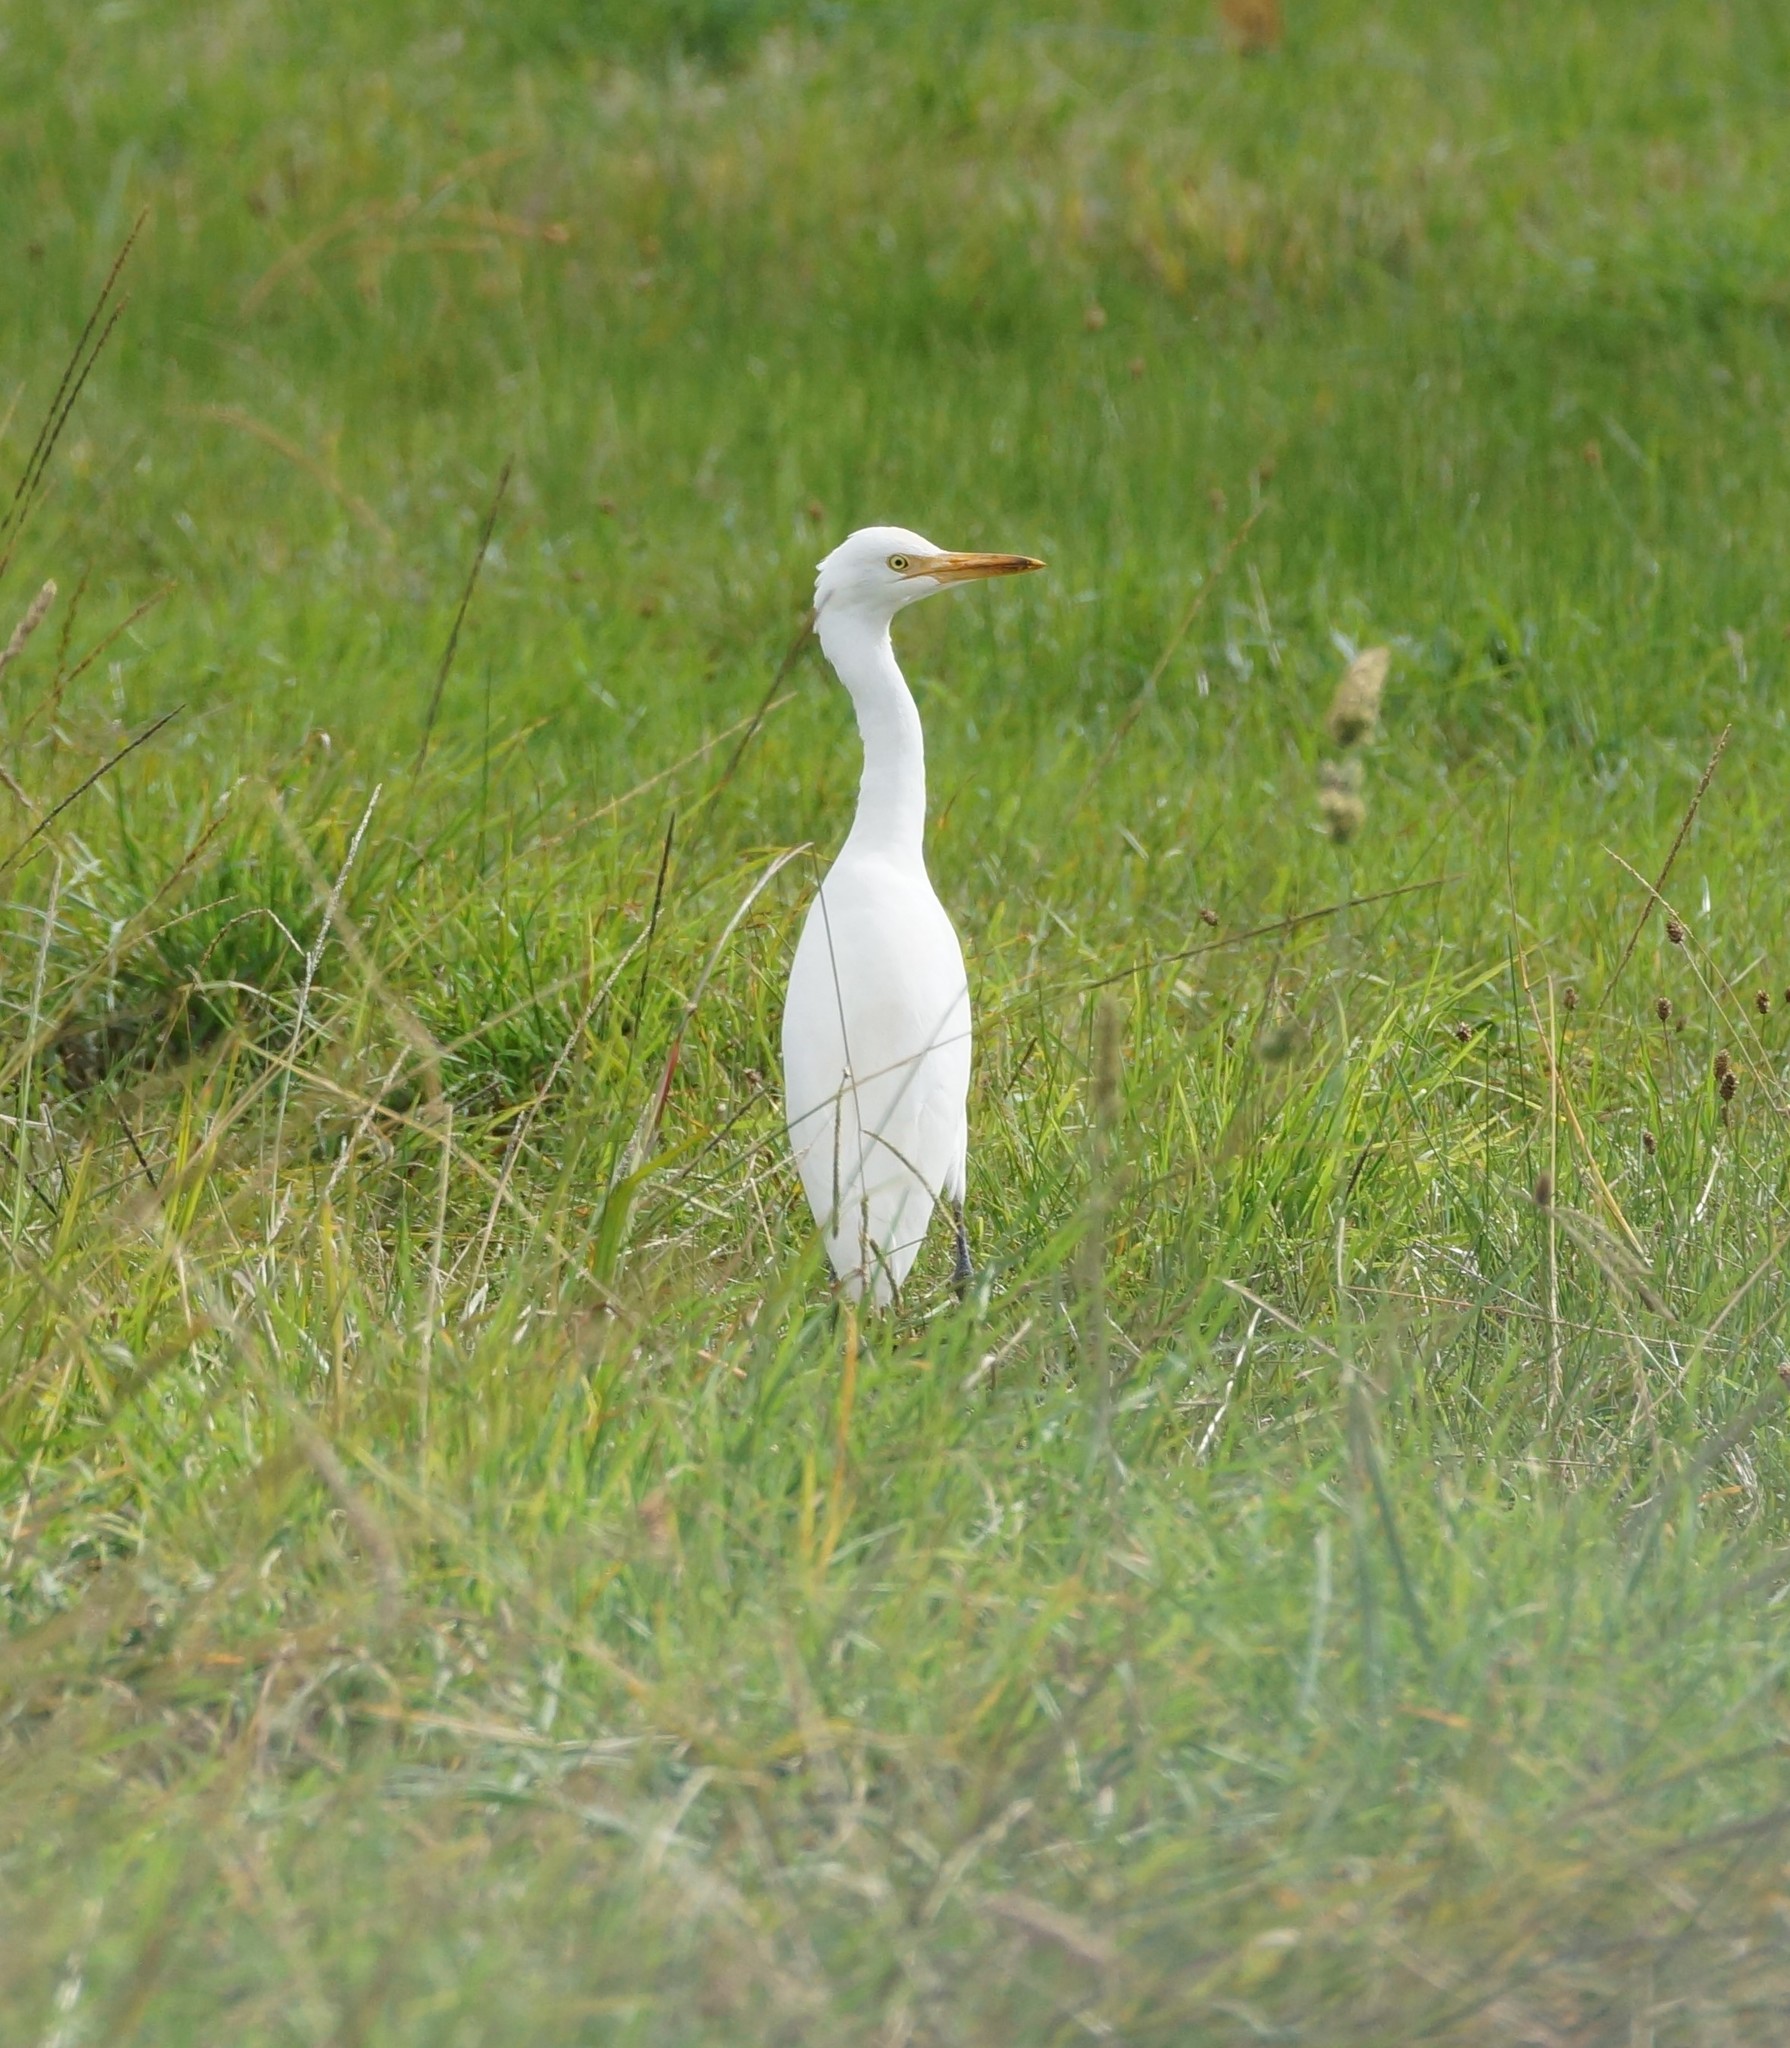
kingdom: Animalia
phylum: Chordata
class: Aves
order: Pelecaniformes
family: Ardeidae
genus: Bubulcus
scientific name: Bubulcus coromandus
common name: Eastern cattle egret
